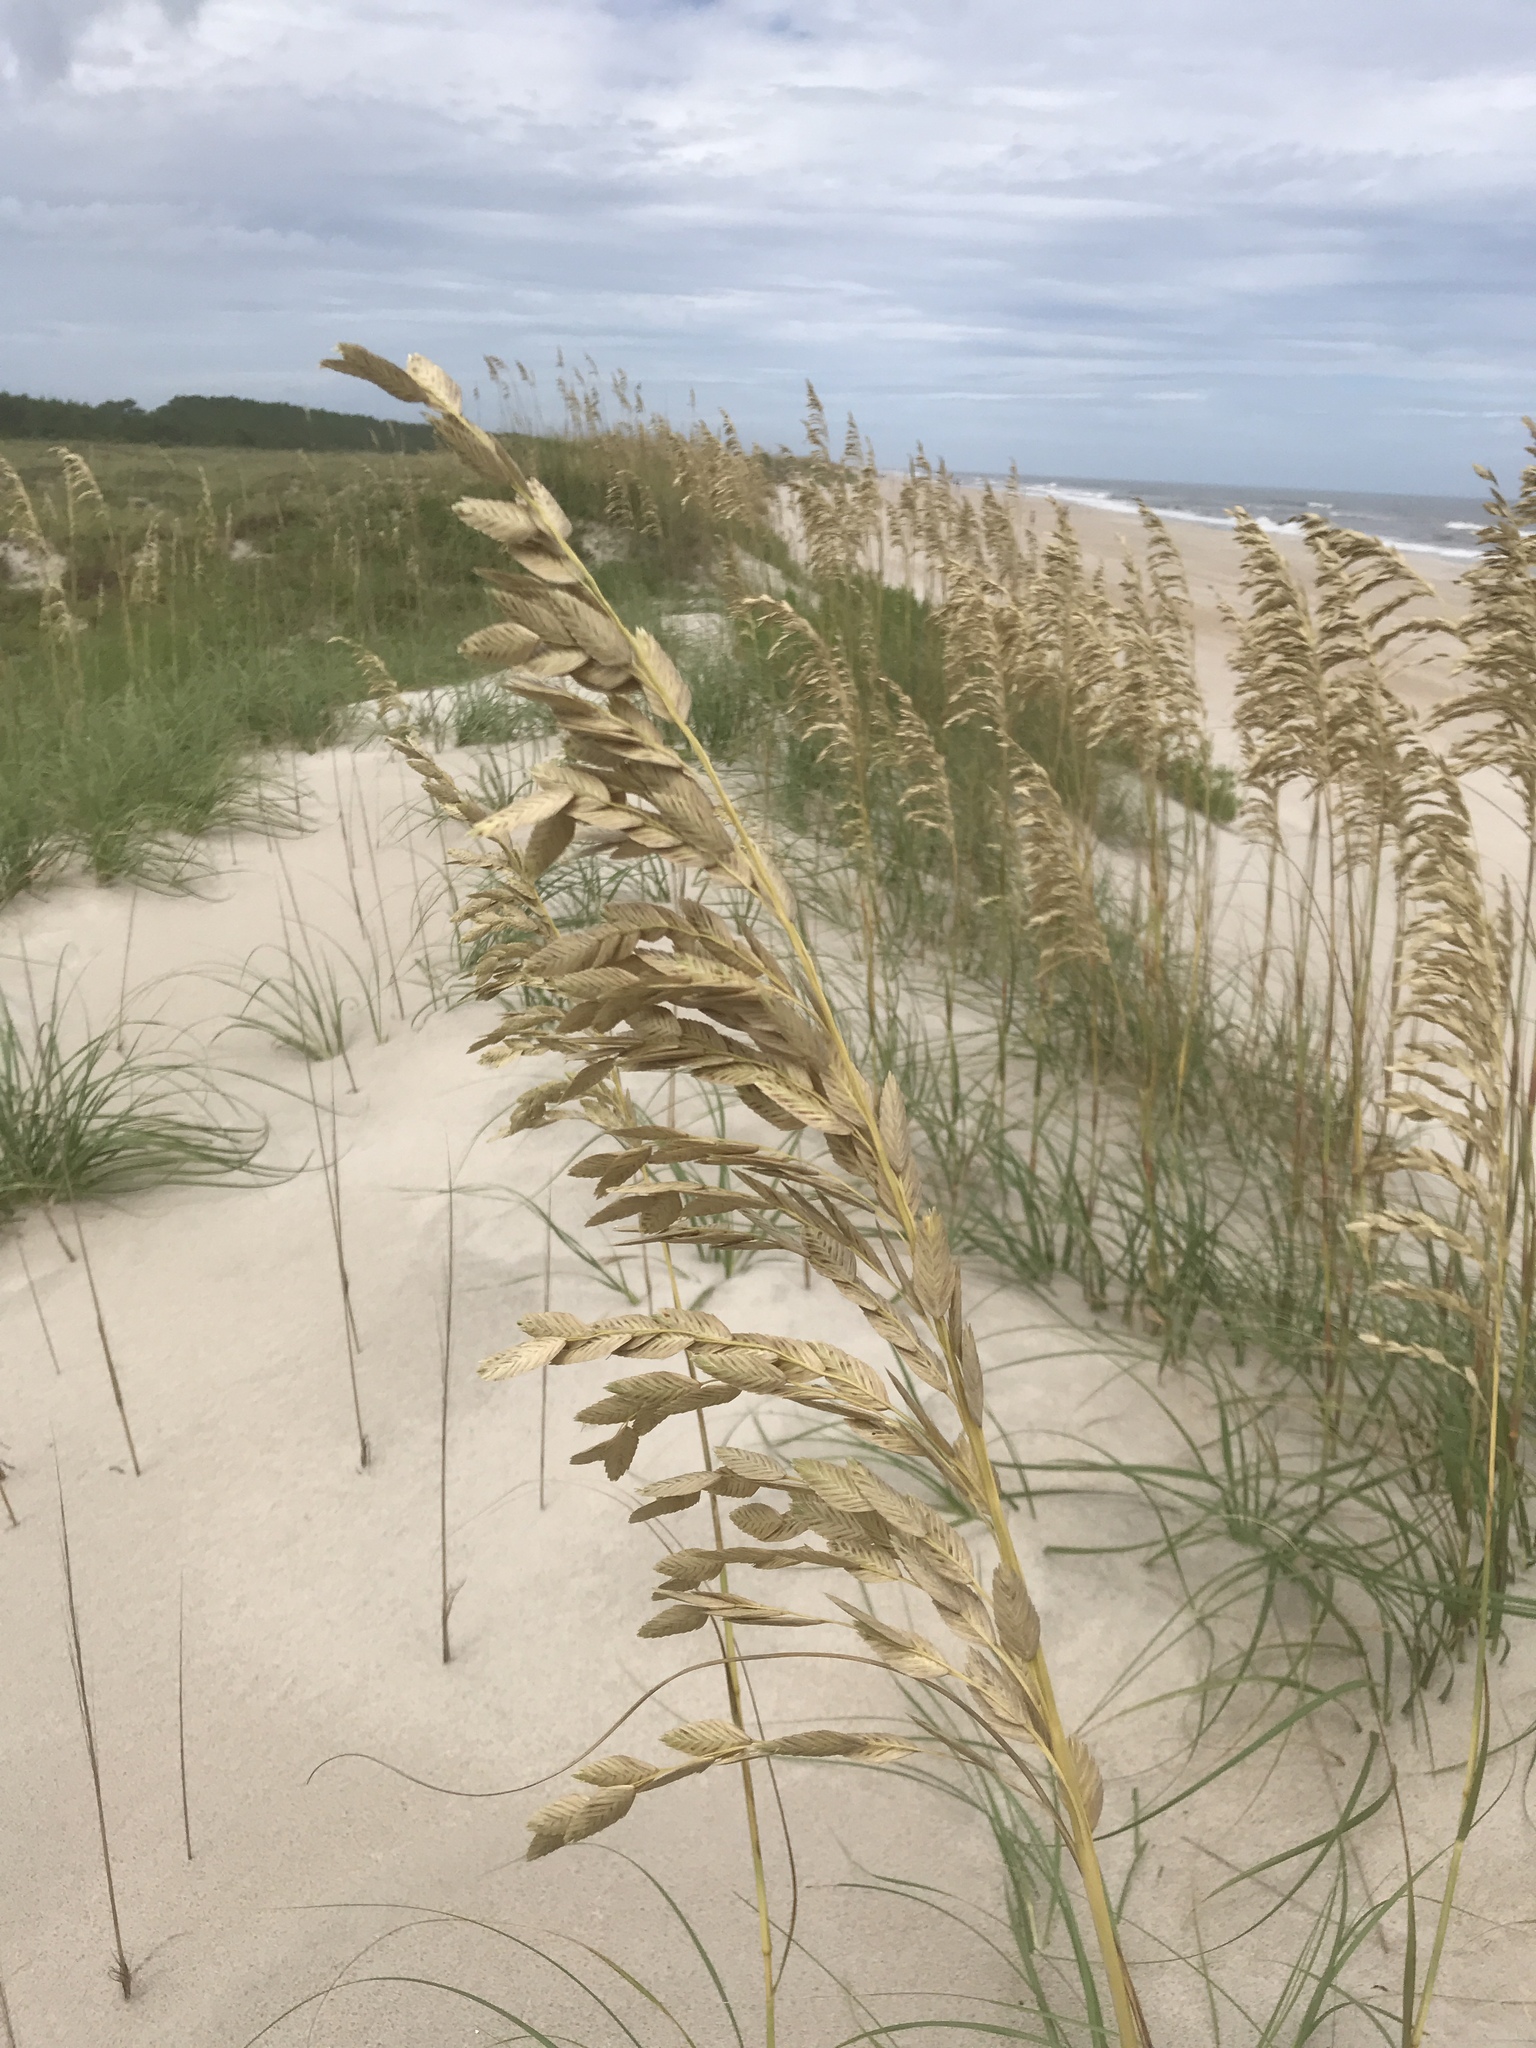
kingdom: Plantae
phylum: Tracheophyta
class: Liliopsida
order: Poales
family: Poaceae
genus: Uniola
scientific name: Uniola paniculata
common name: Seaside-oats
